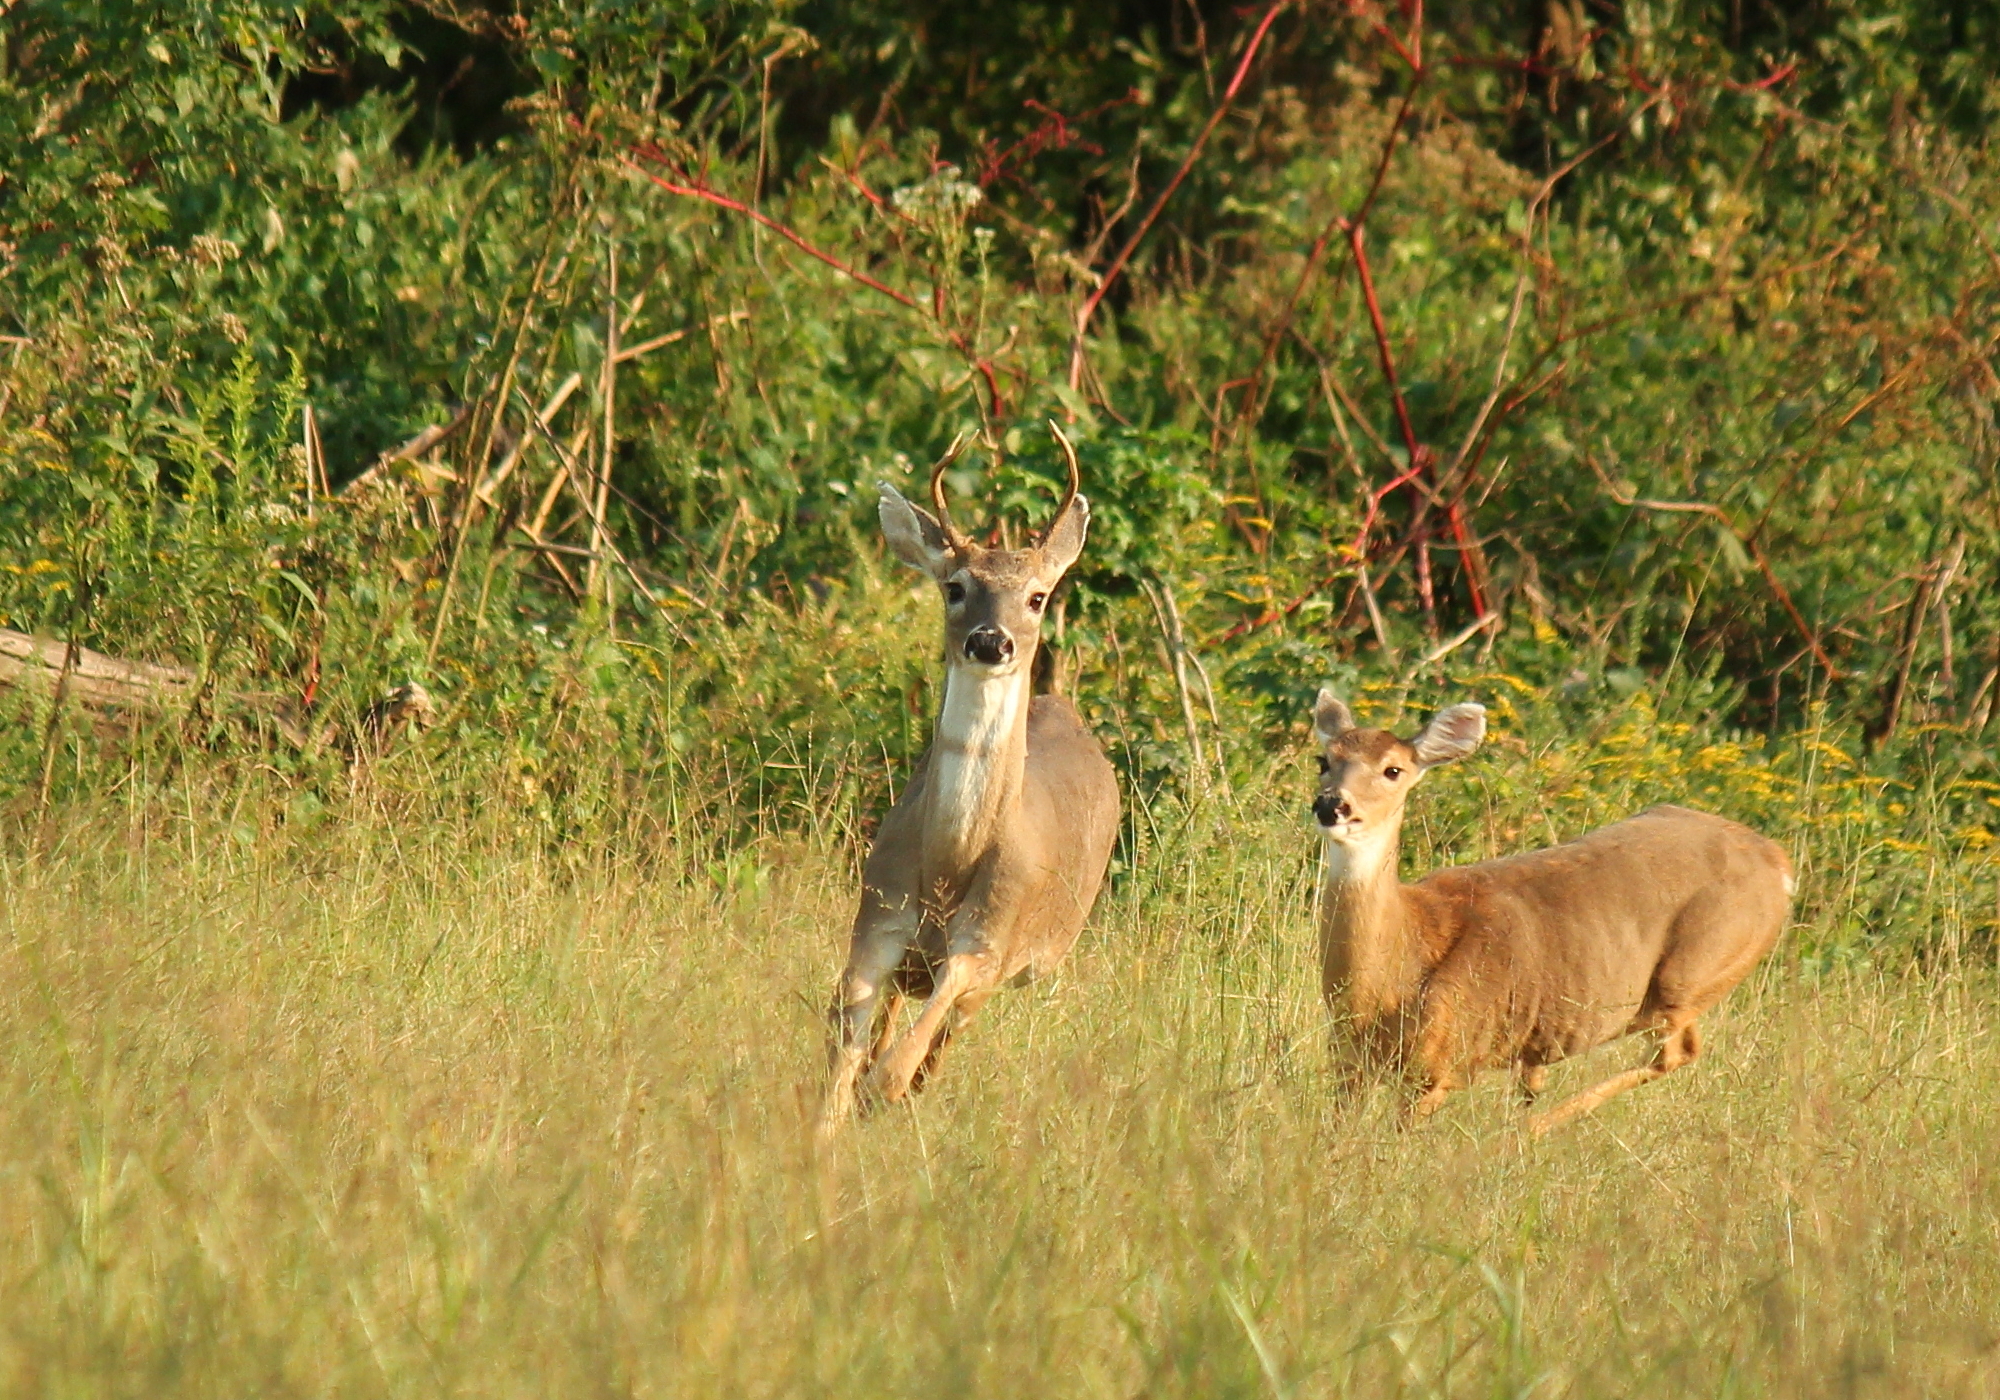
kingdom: Animalia
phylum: Chordata
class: Mammalia
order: Artiodactyla
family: Cervidae
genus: Odocoileus
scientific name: Odocoileus virginianus
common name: White-tailed deer
